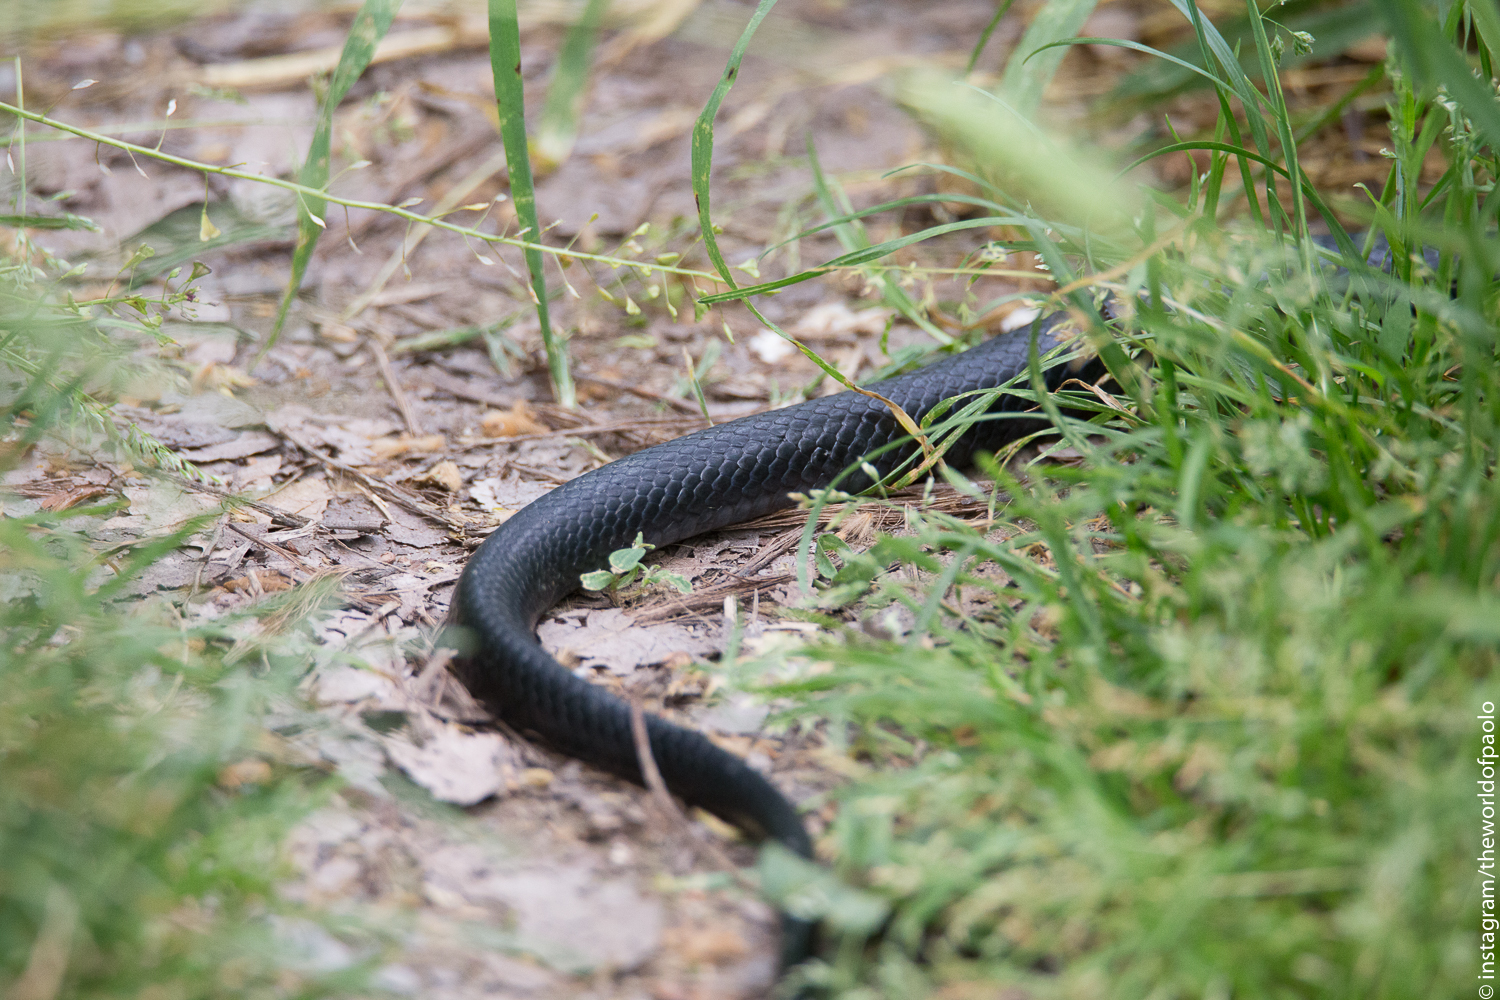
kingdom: Animalia
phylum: Chordata
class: Squamata
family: Colubridae
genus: Hierophis
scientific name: Hierophis viridiflavus
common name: Green whip snake
